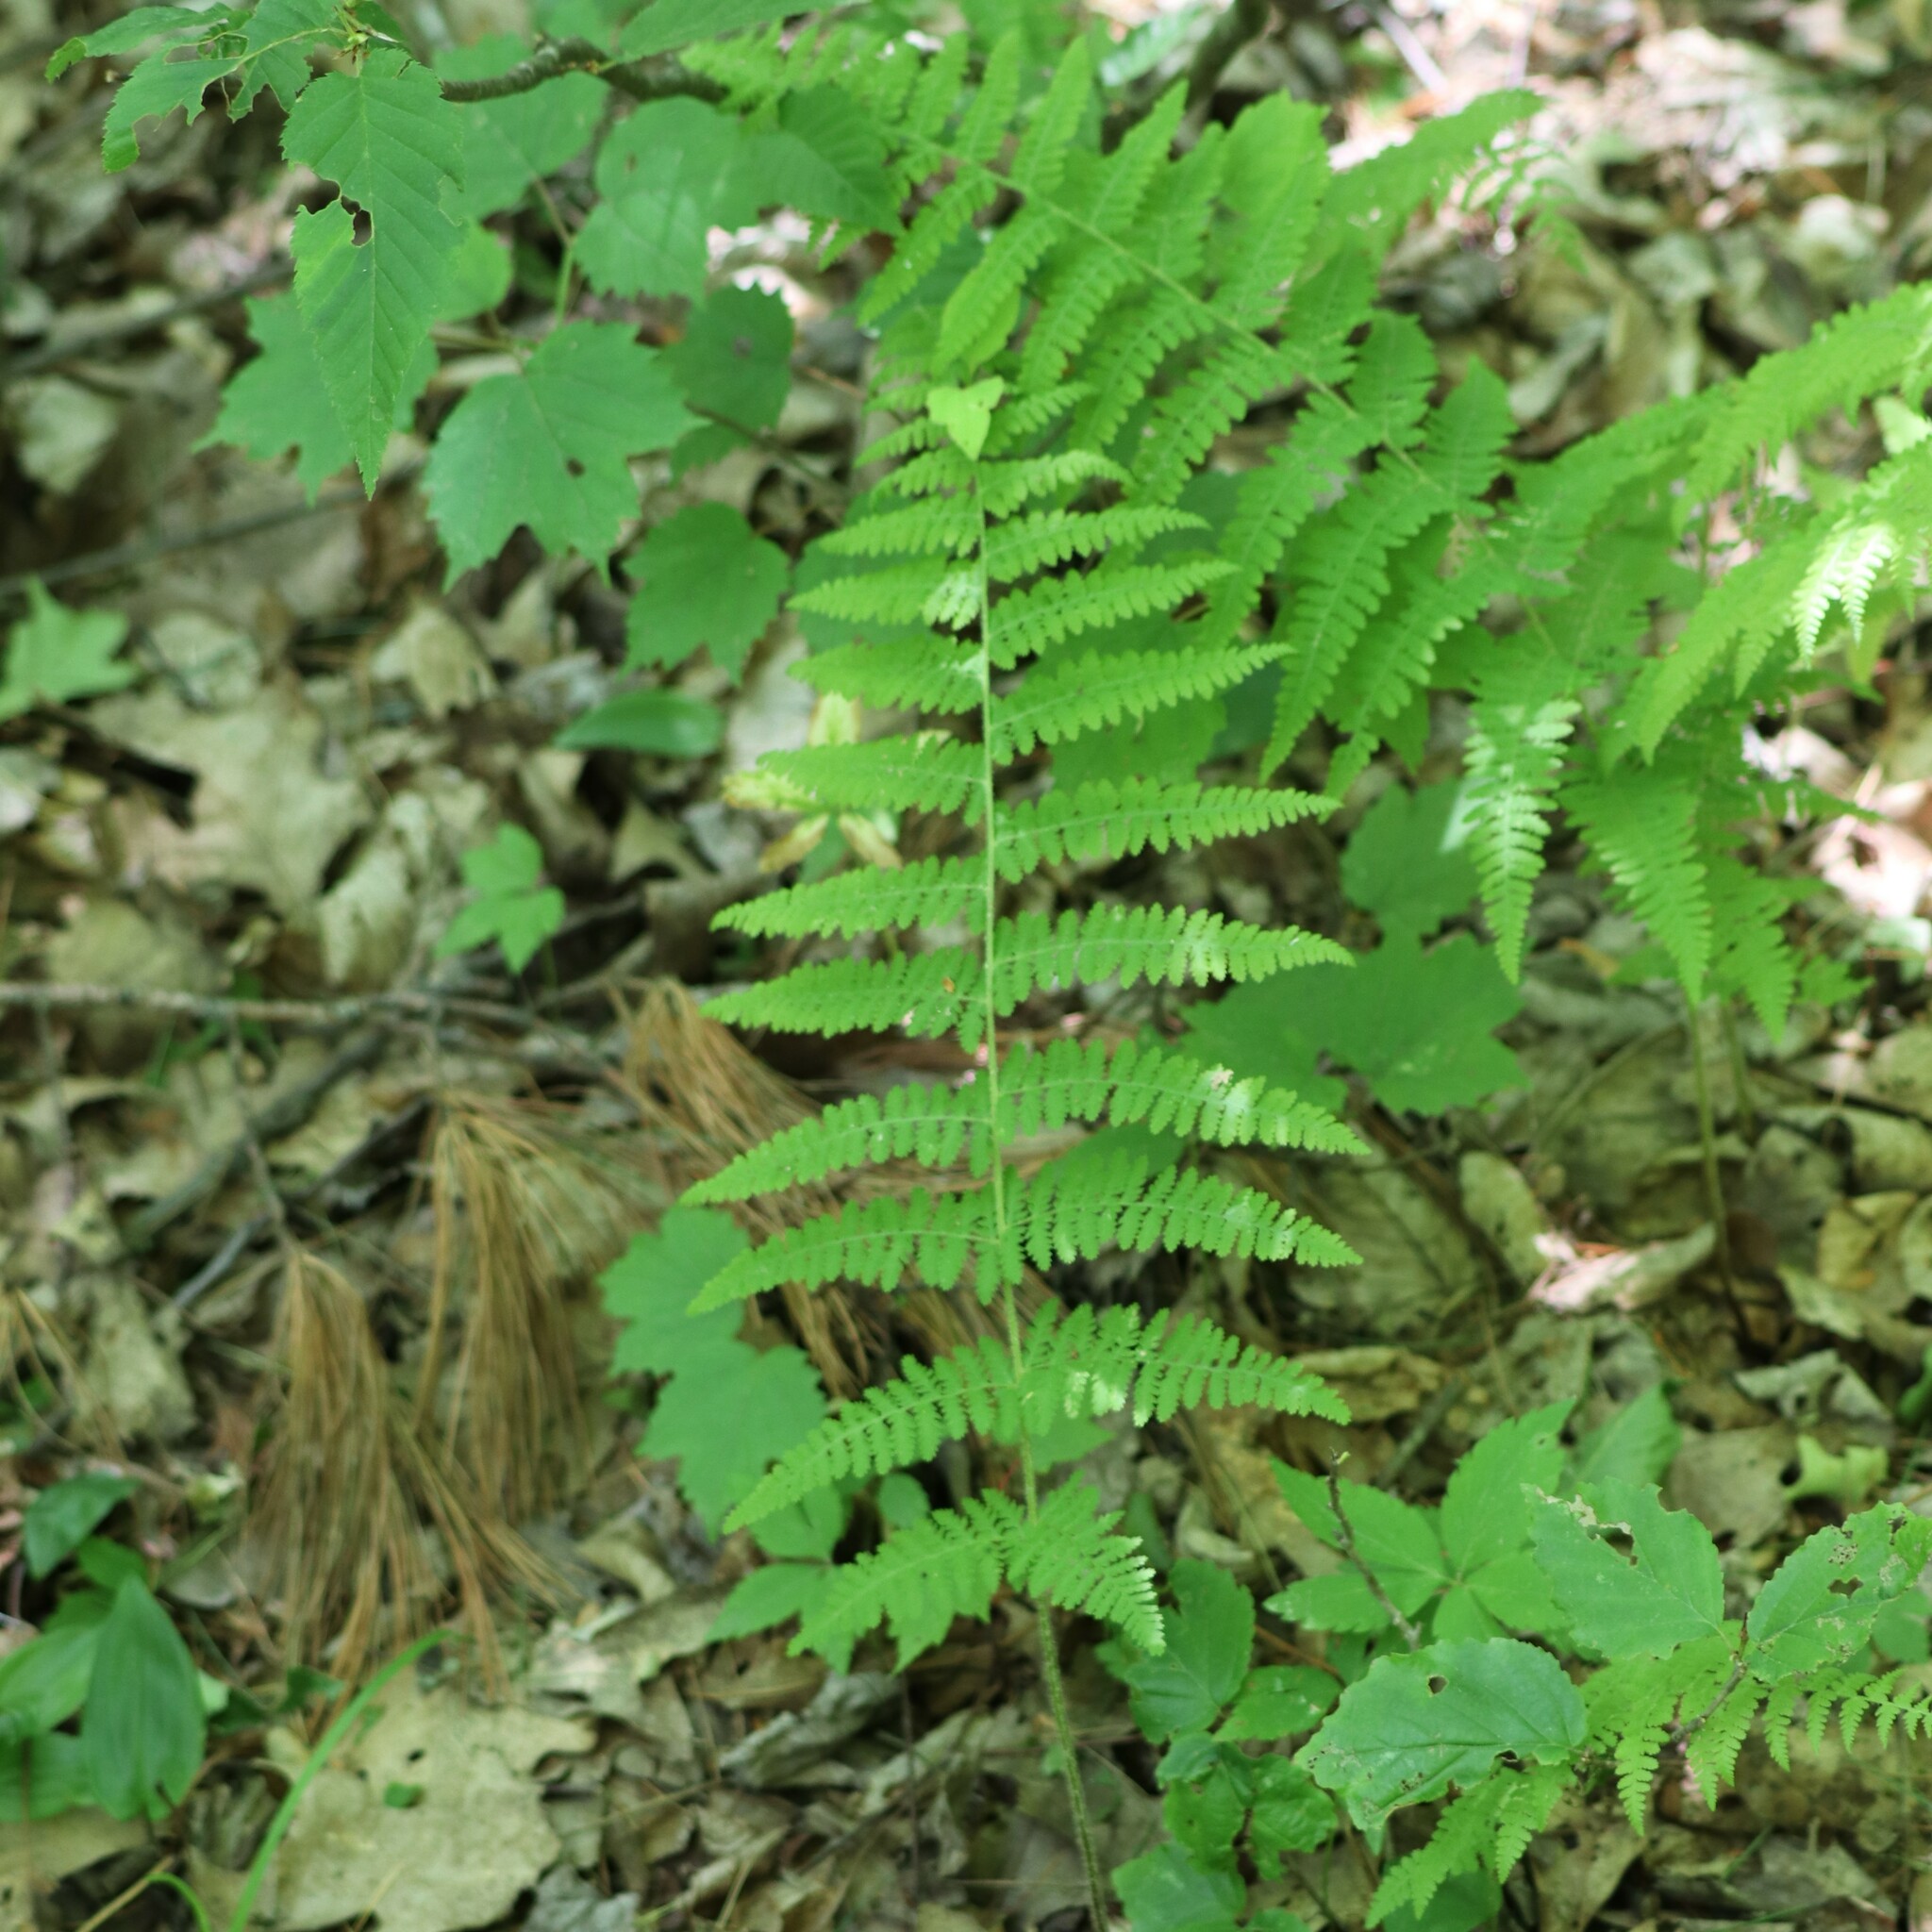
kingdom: Plantae
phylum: Tracheophyta
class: Polypodiopsida
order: Polypodiales
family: Dennstaedtiaceae
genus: Sitobolium
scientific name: Sitobolium punctilobum
